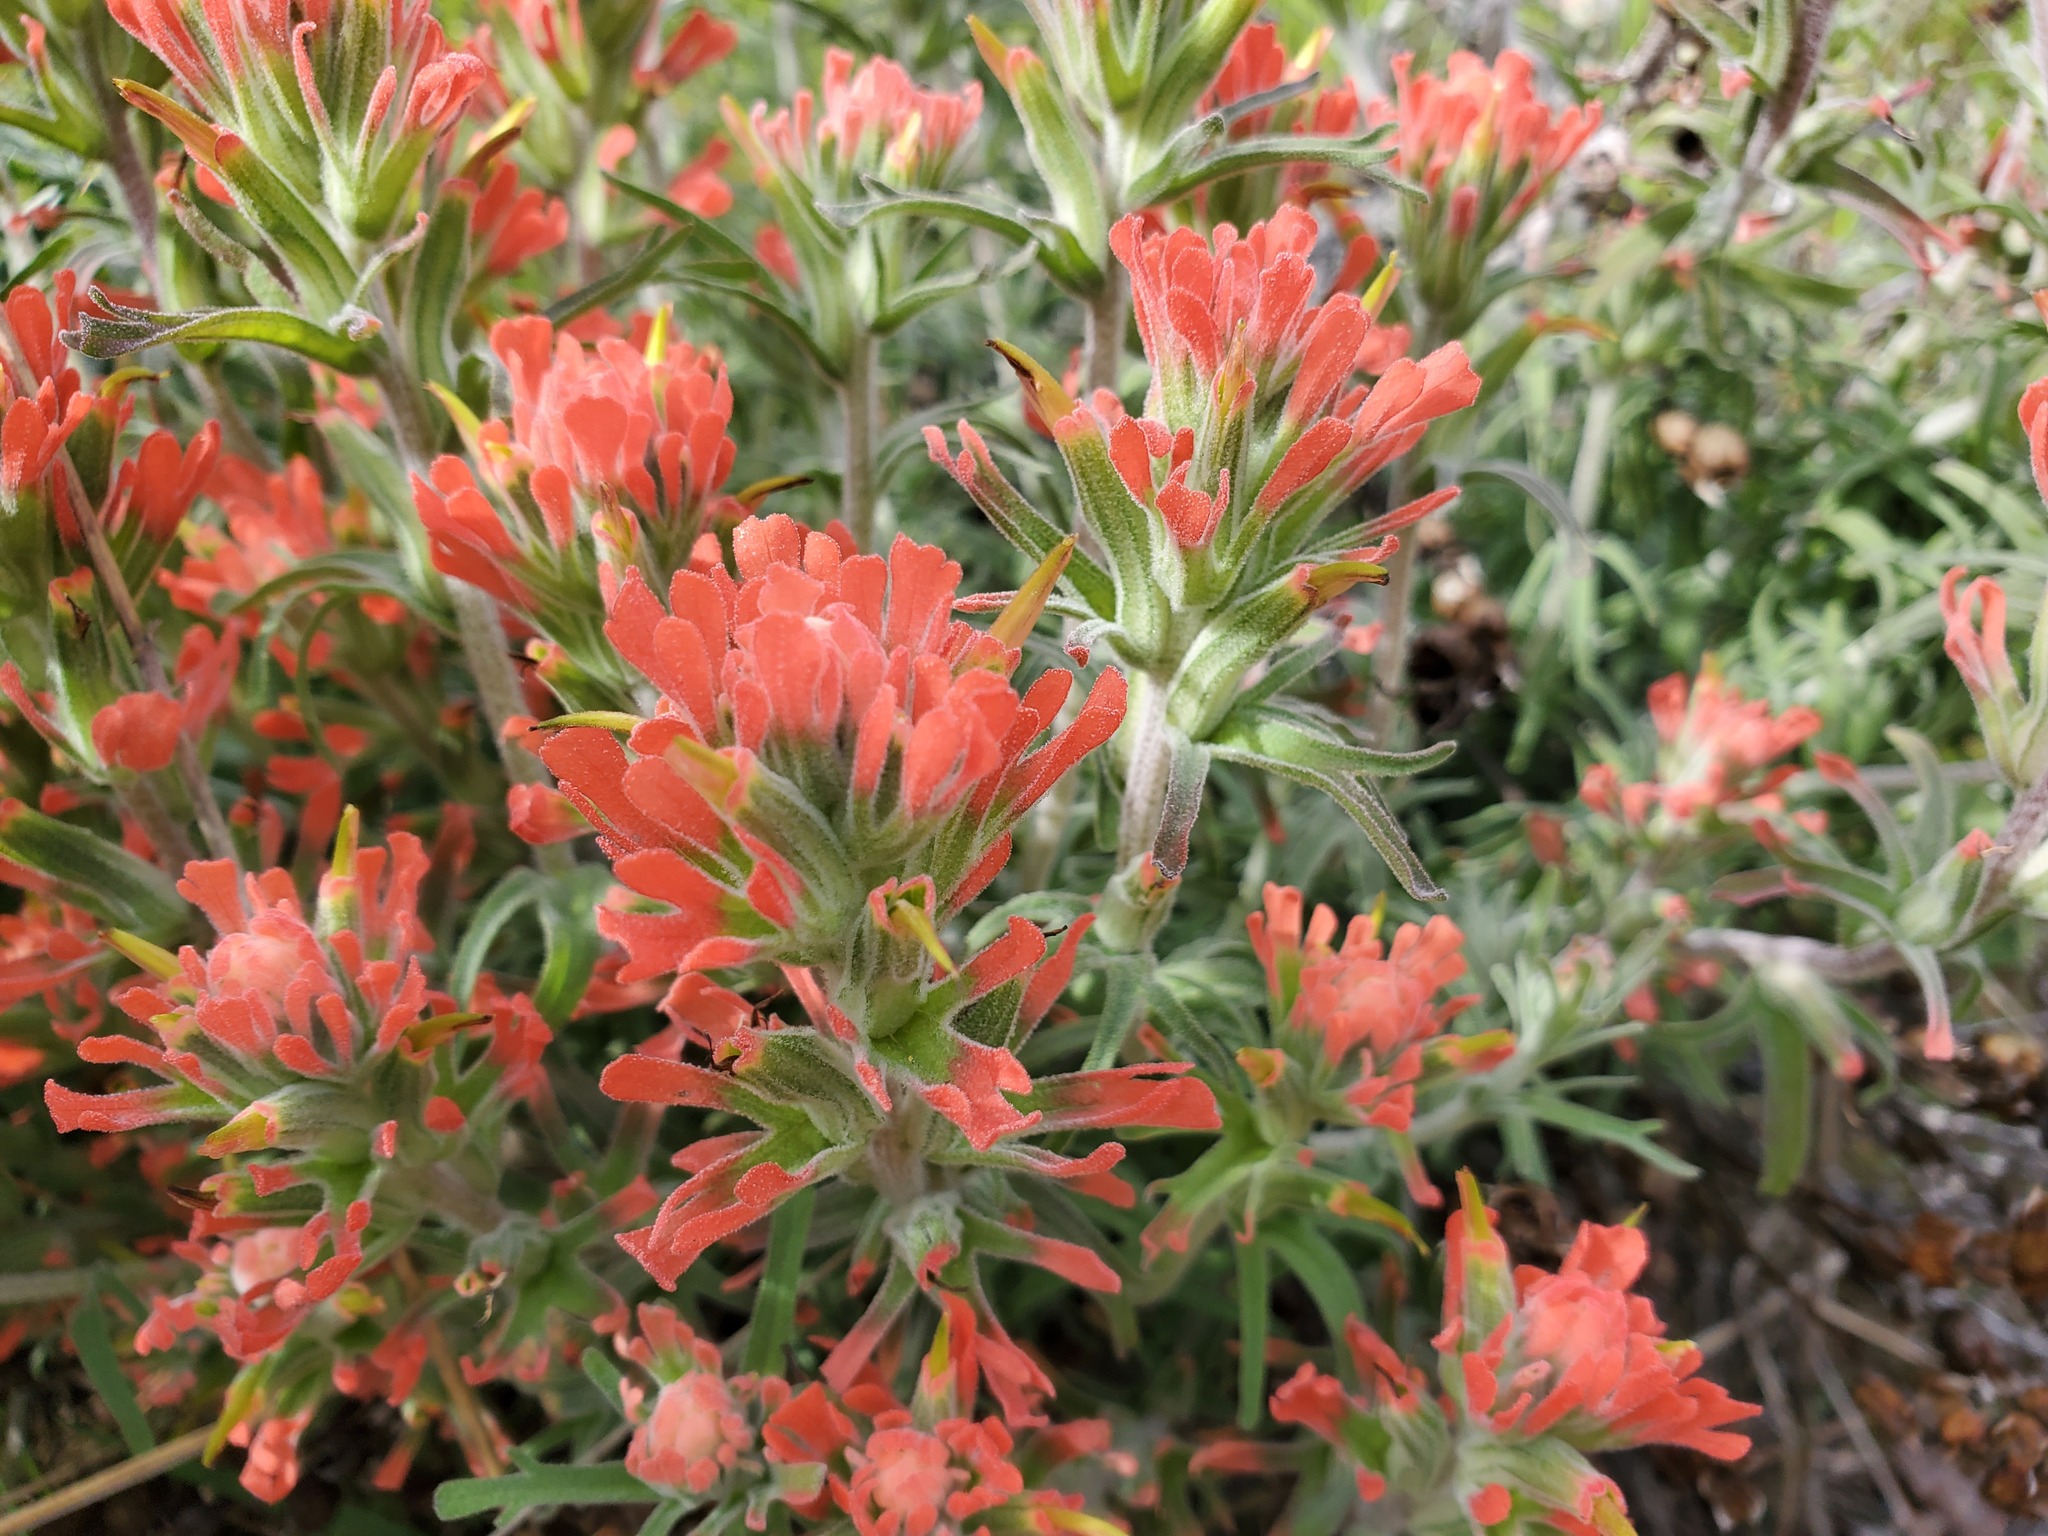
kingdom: Plantae
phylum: Tracheophyta
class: Magnoliopsida
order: Lamiales
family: Orobanchaceae
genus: Castilleja
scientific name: Castilleja foliolosa
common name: Woolly indian paintbrush
